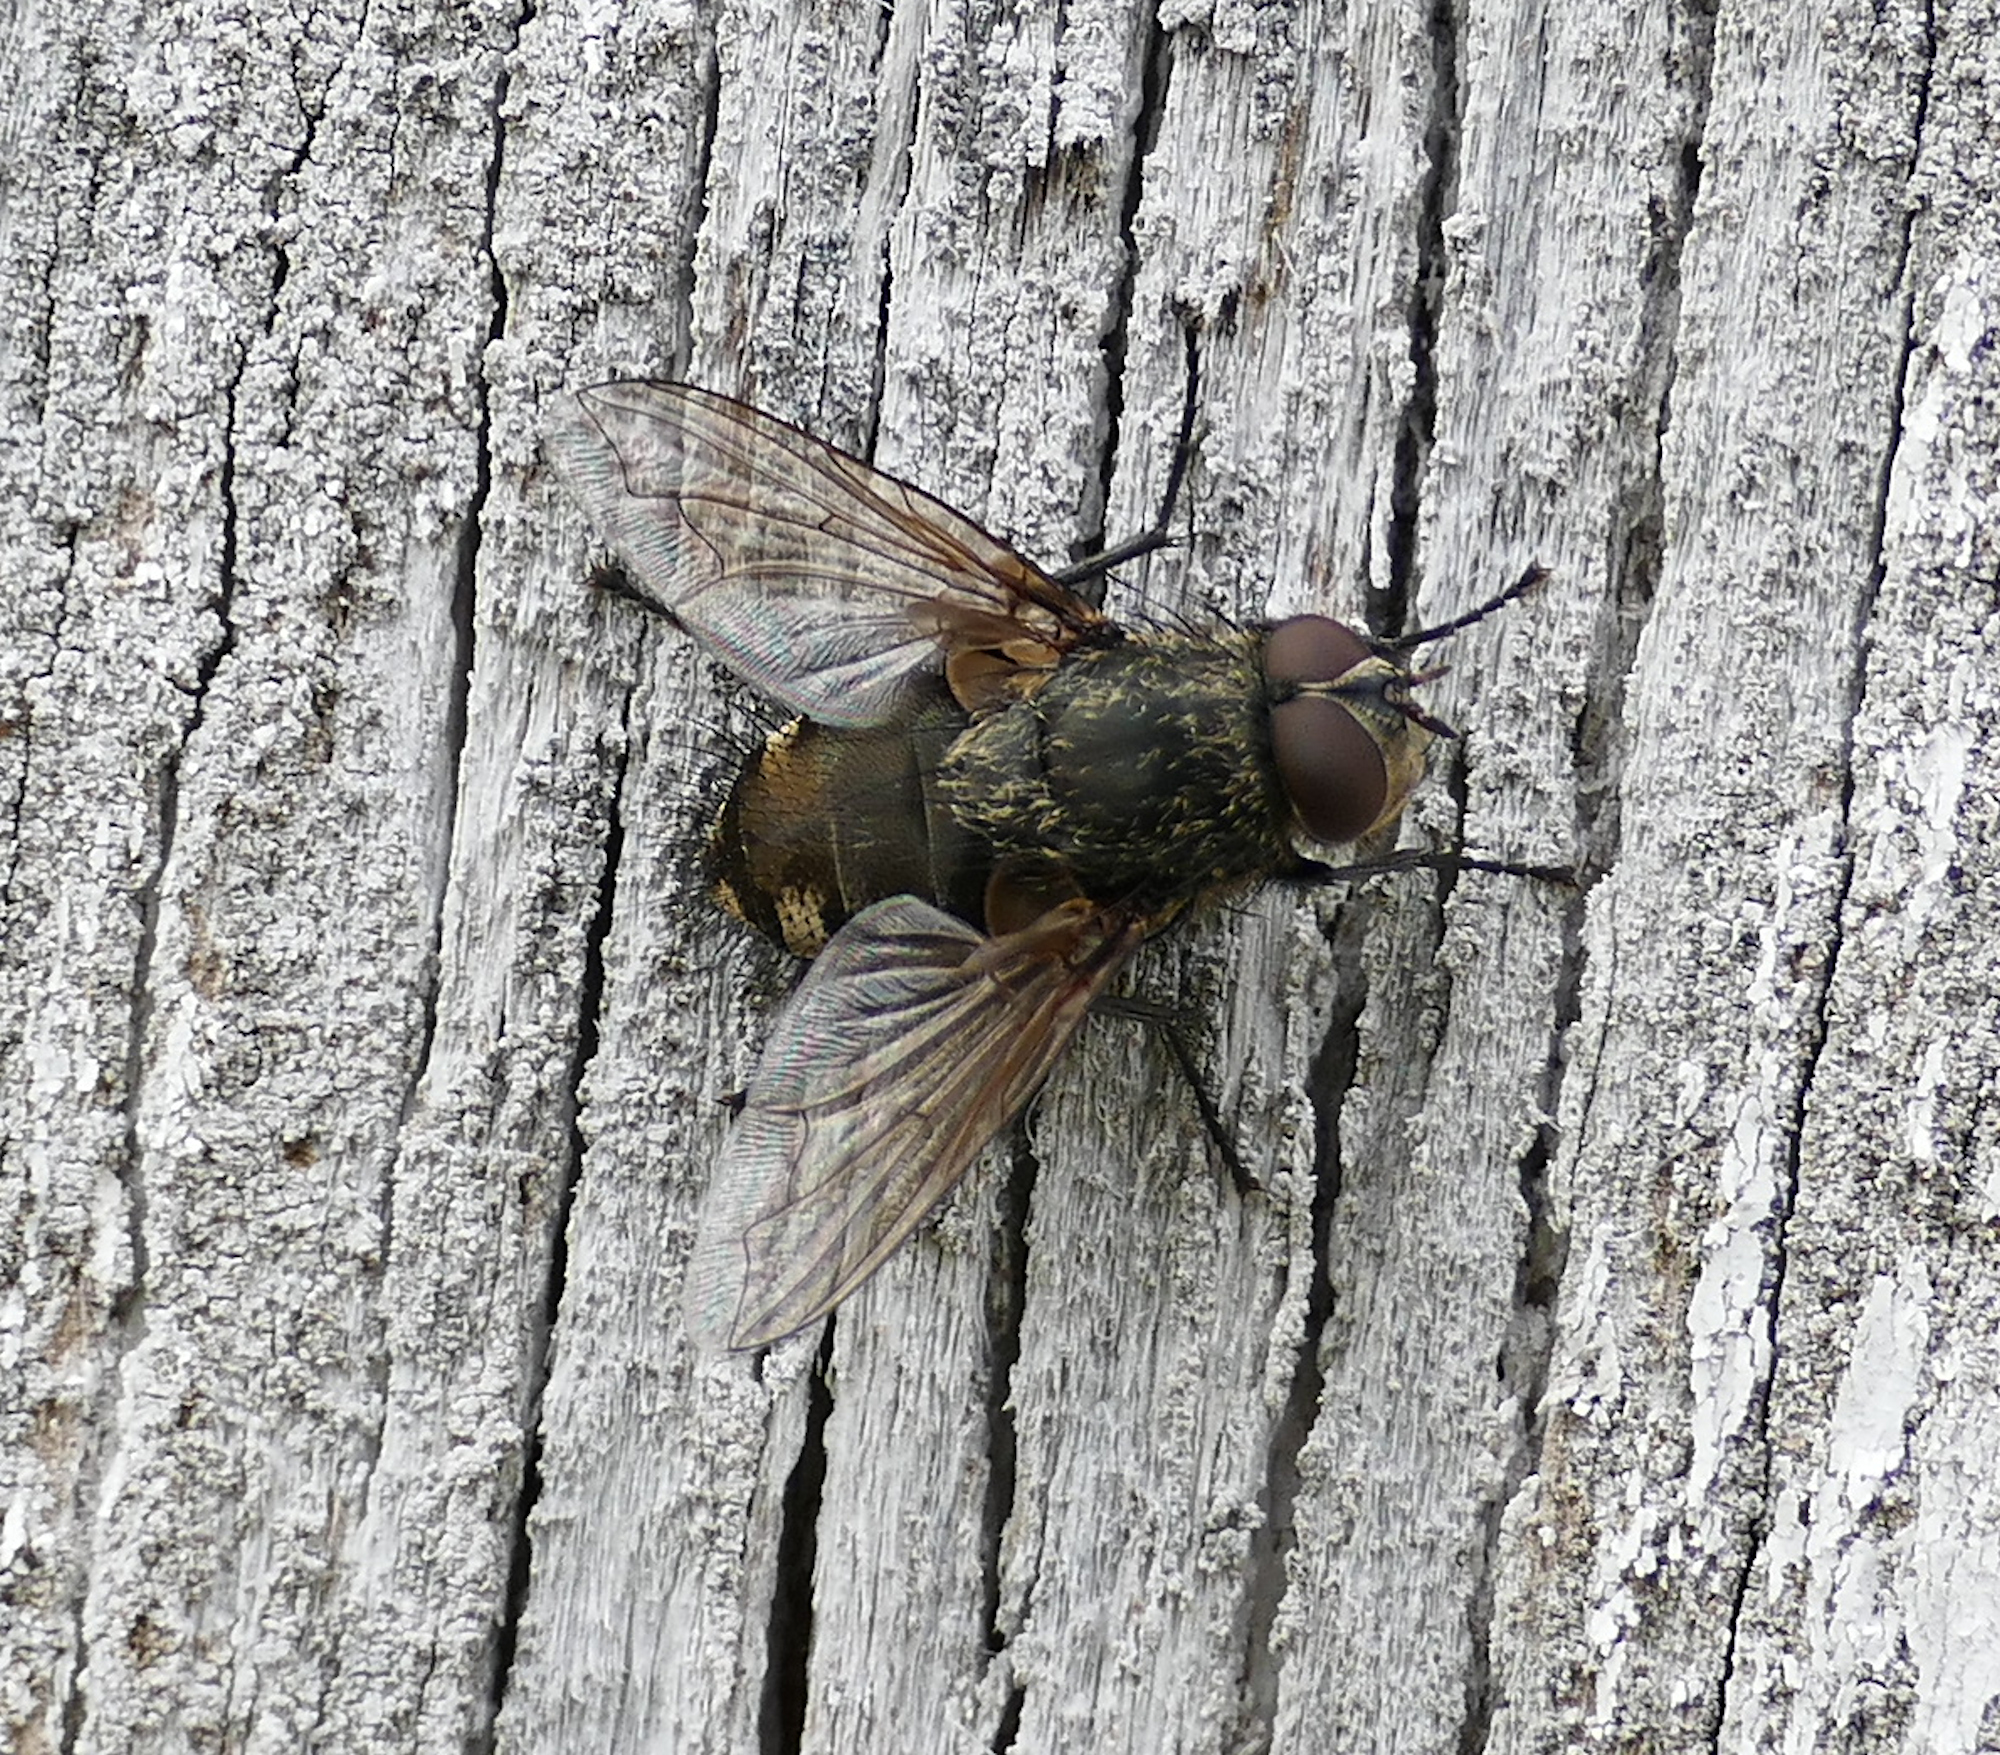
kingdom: Animalia
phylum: Arthropoda
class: Insecta
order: Diptera
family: Polleniidae
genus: Pollenia
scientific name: Pollenia
